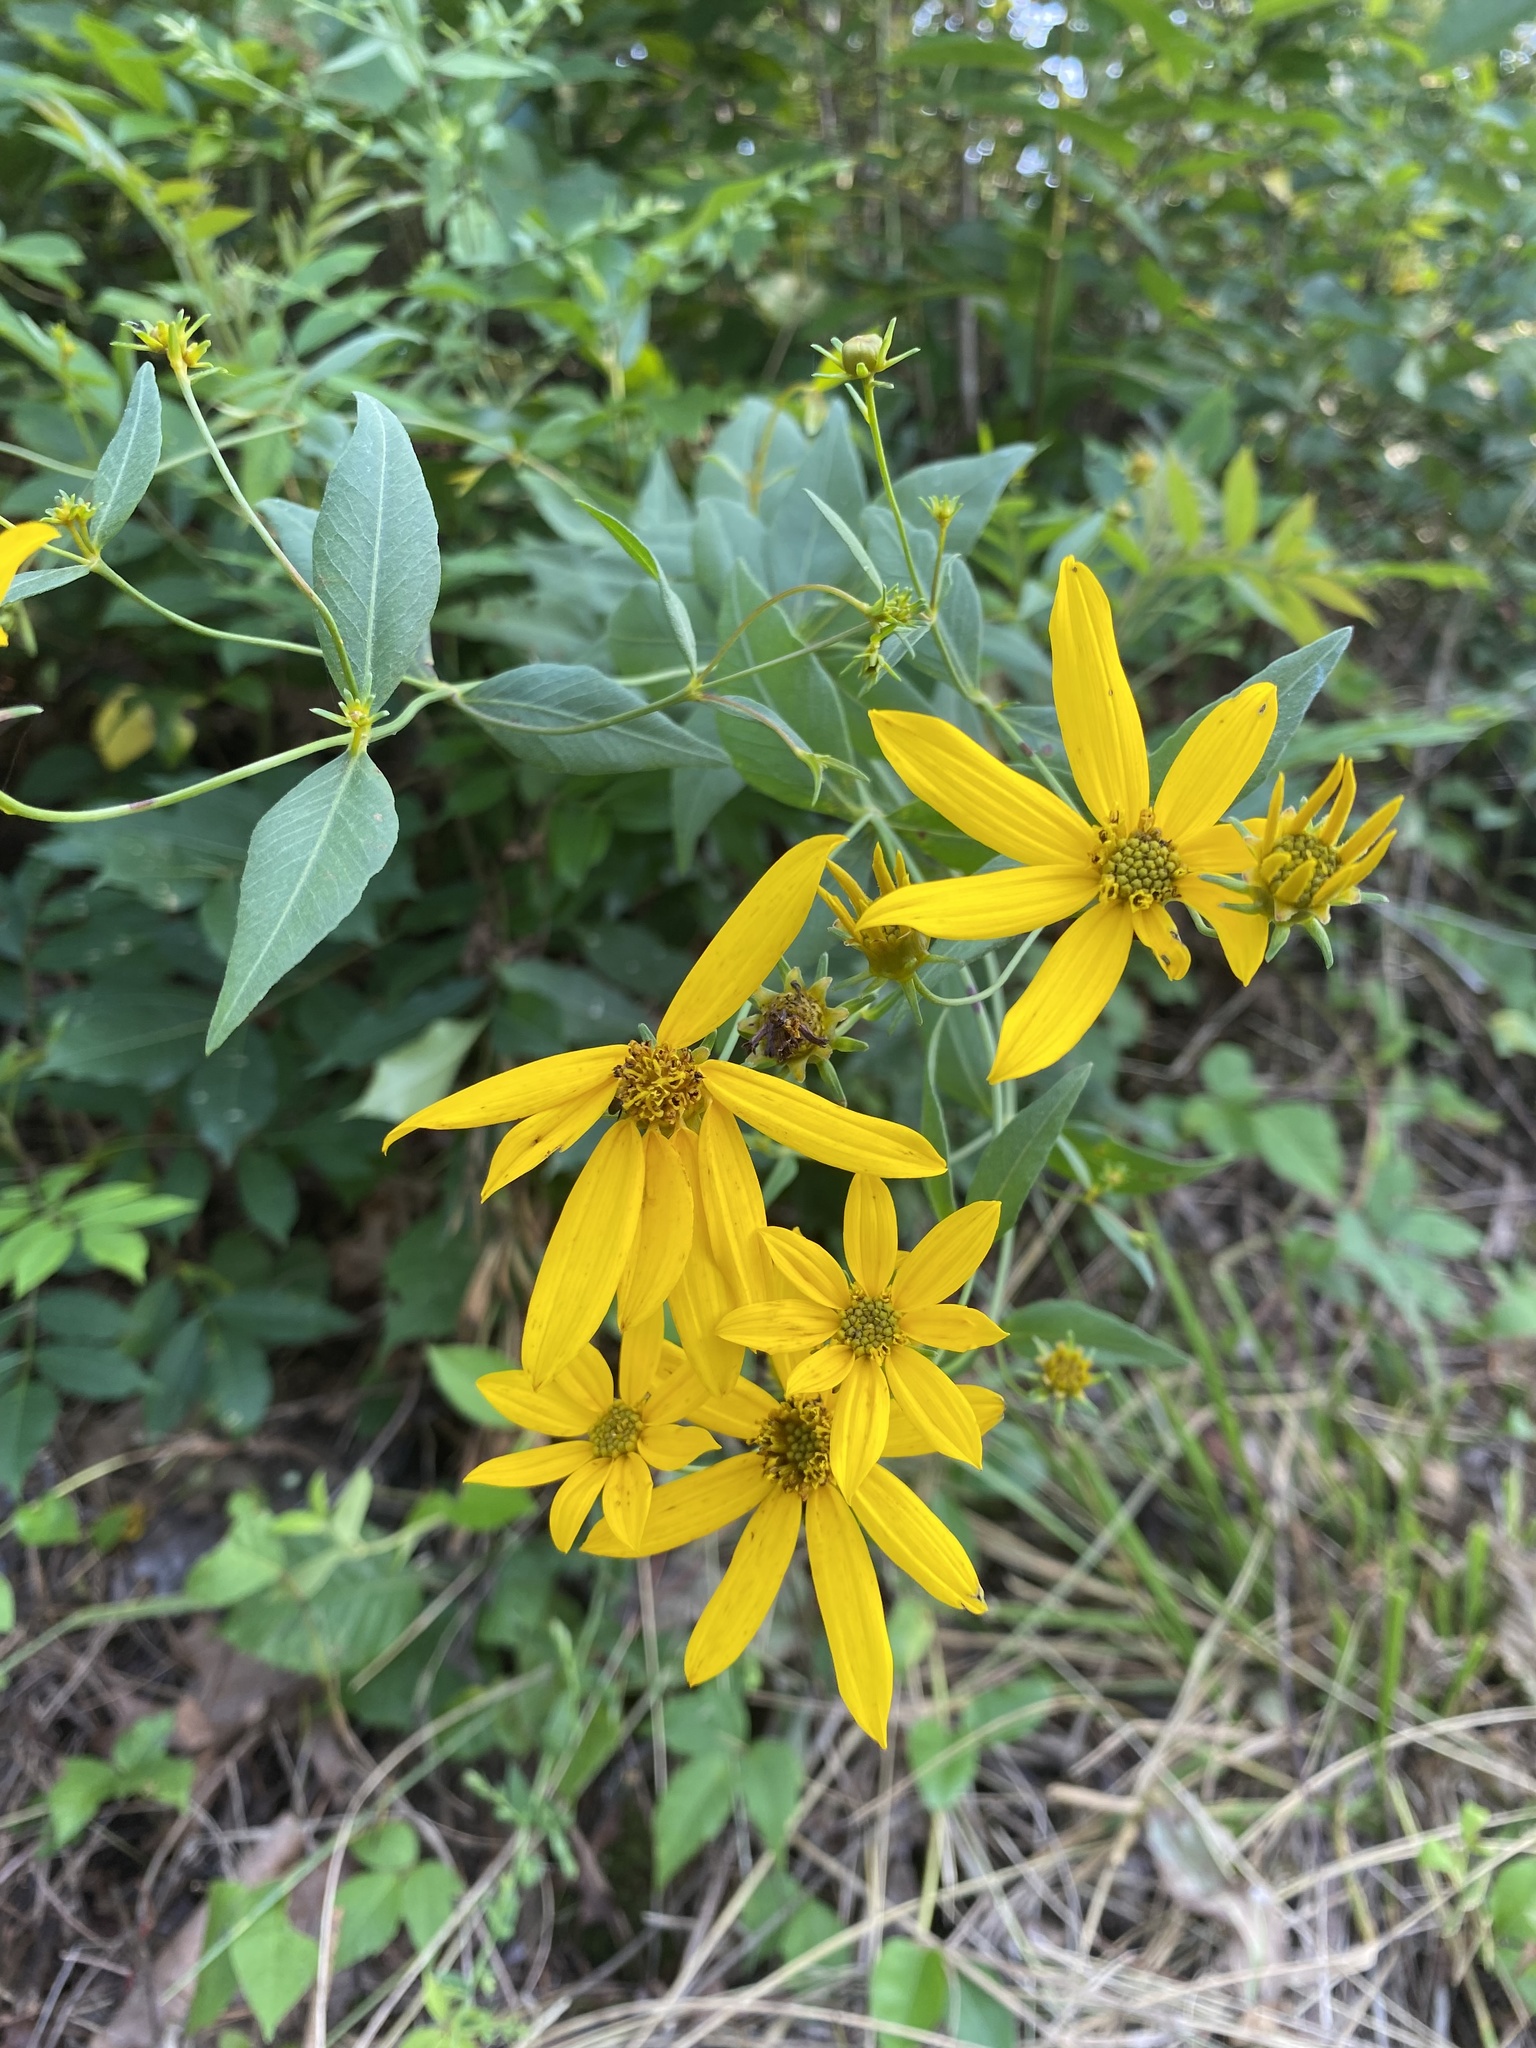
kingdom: Plantae
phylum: Tracheophyta
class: Magnoliopsida
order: Asterales
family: Asteraceae
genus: Coreopsis
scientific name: Coreopsis major
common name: Forest tickseed
